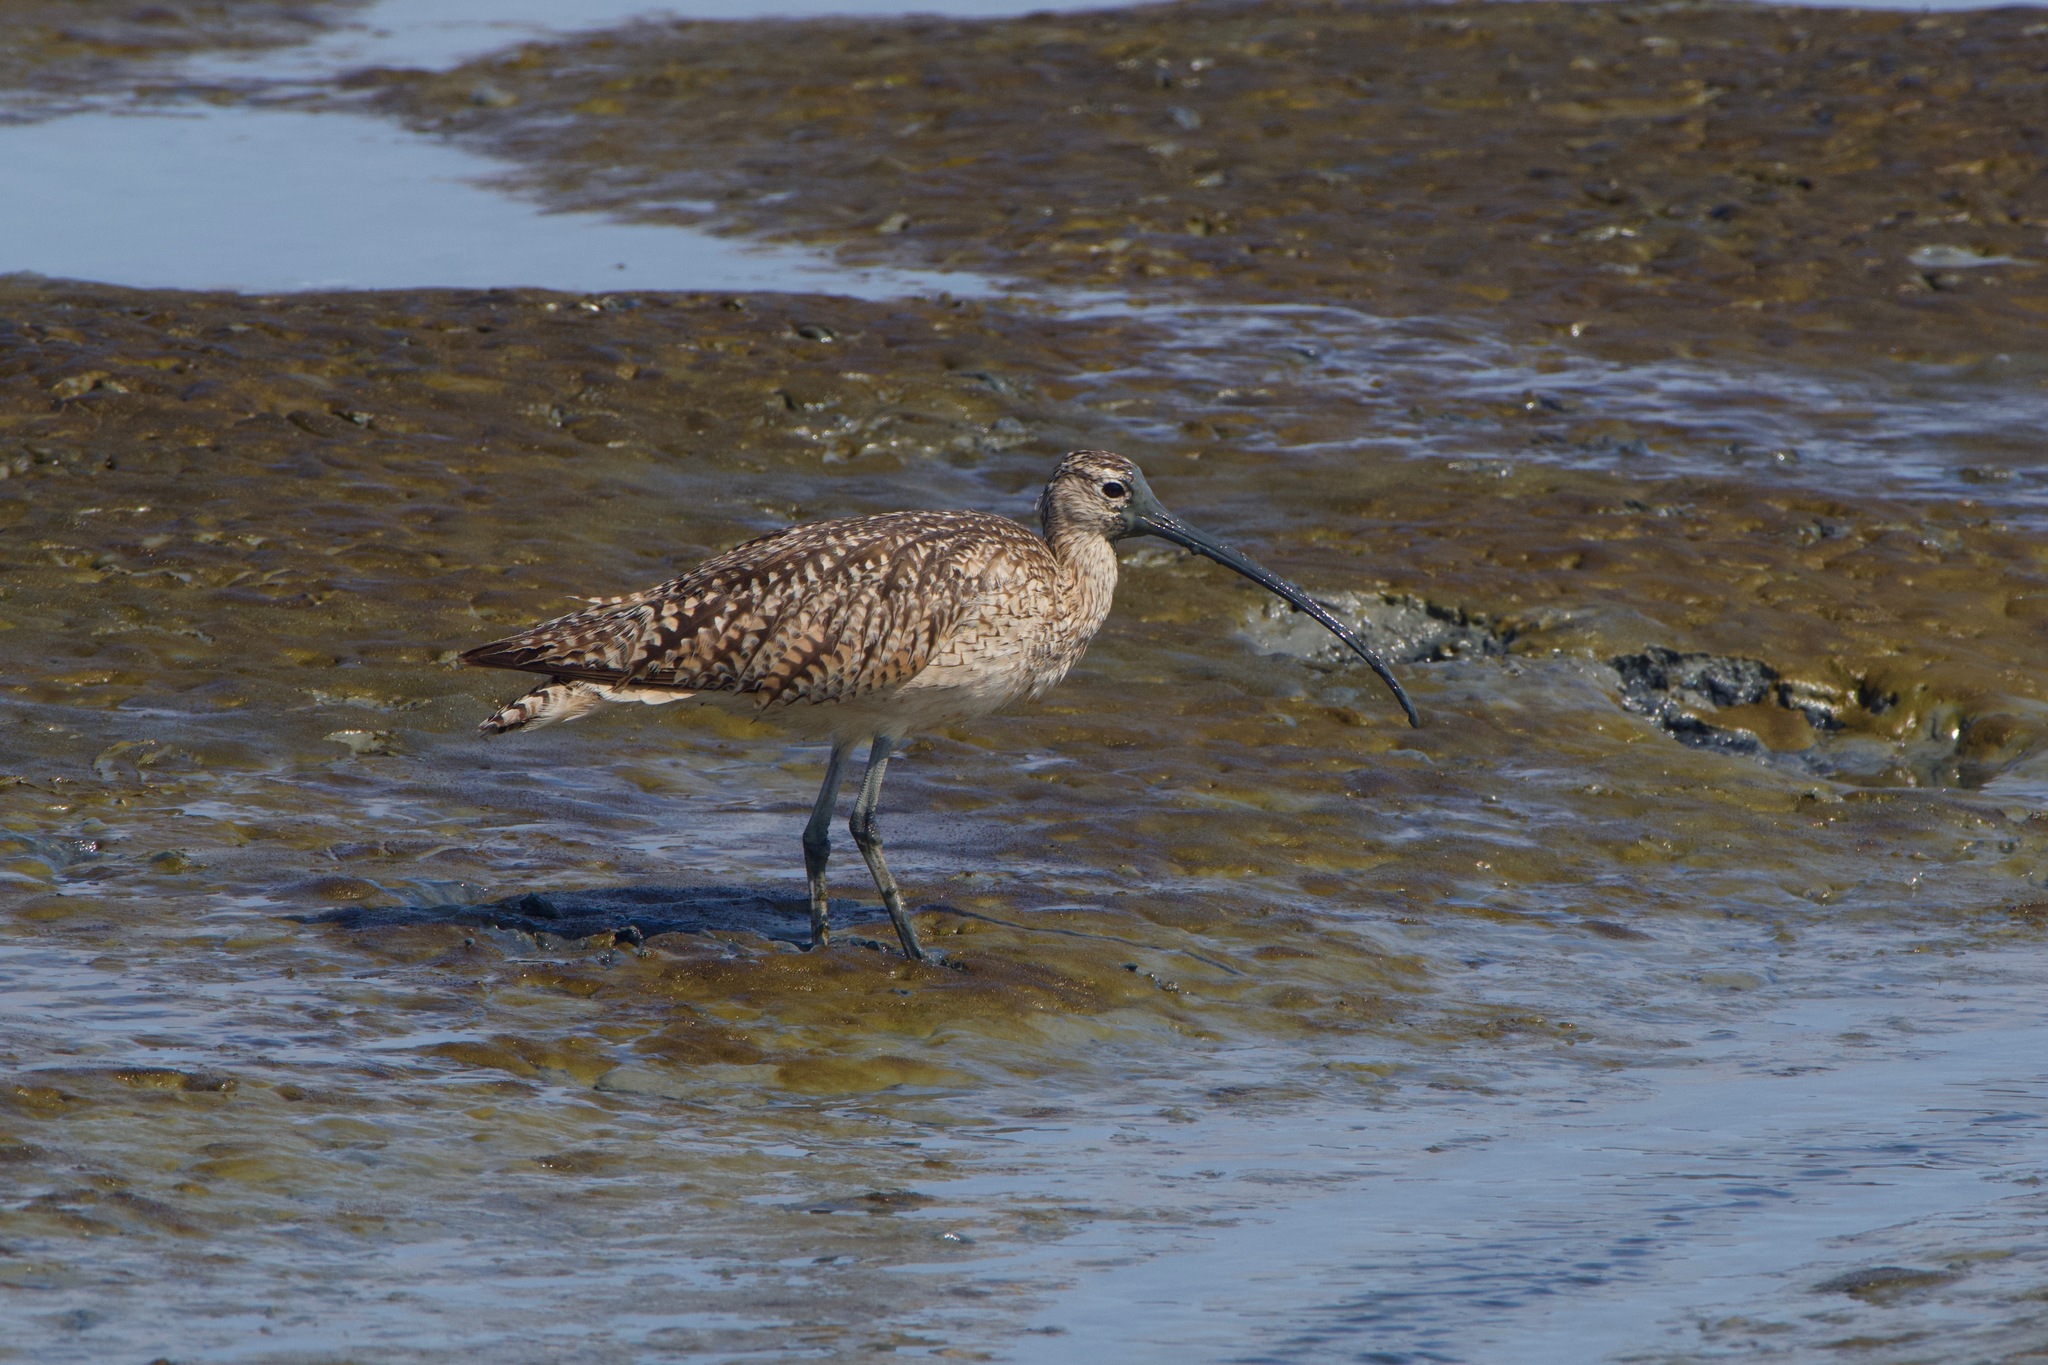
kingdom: Animalia
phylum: Chordata
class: Aves
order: Charadriiformes
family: Scolopacidae
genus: Numenius
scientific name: Numenius americanus
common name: Long-billed curlew
